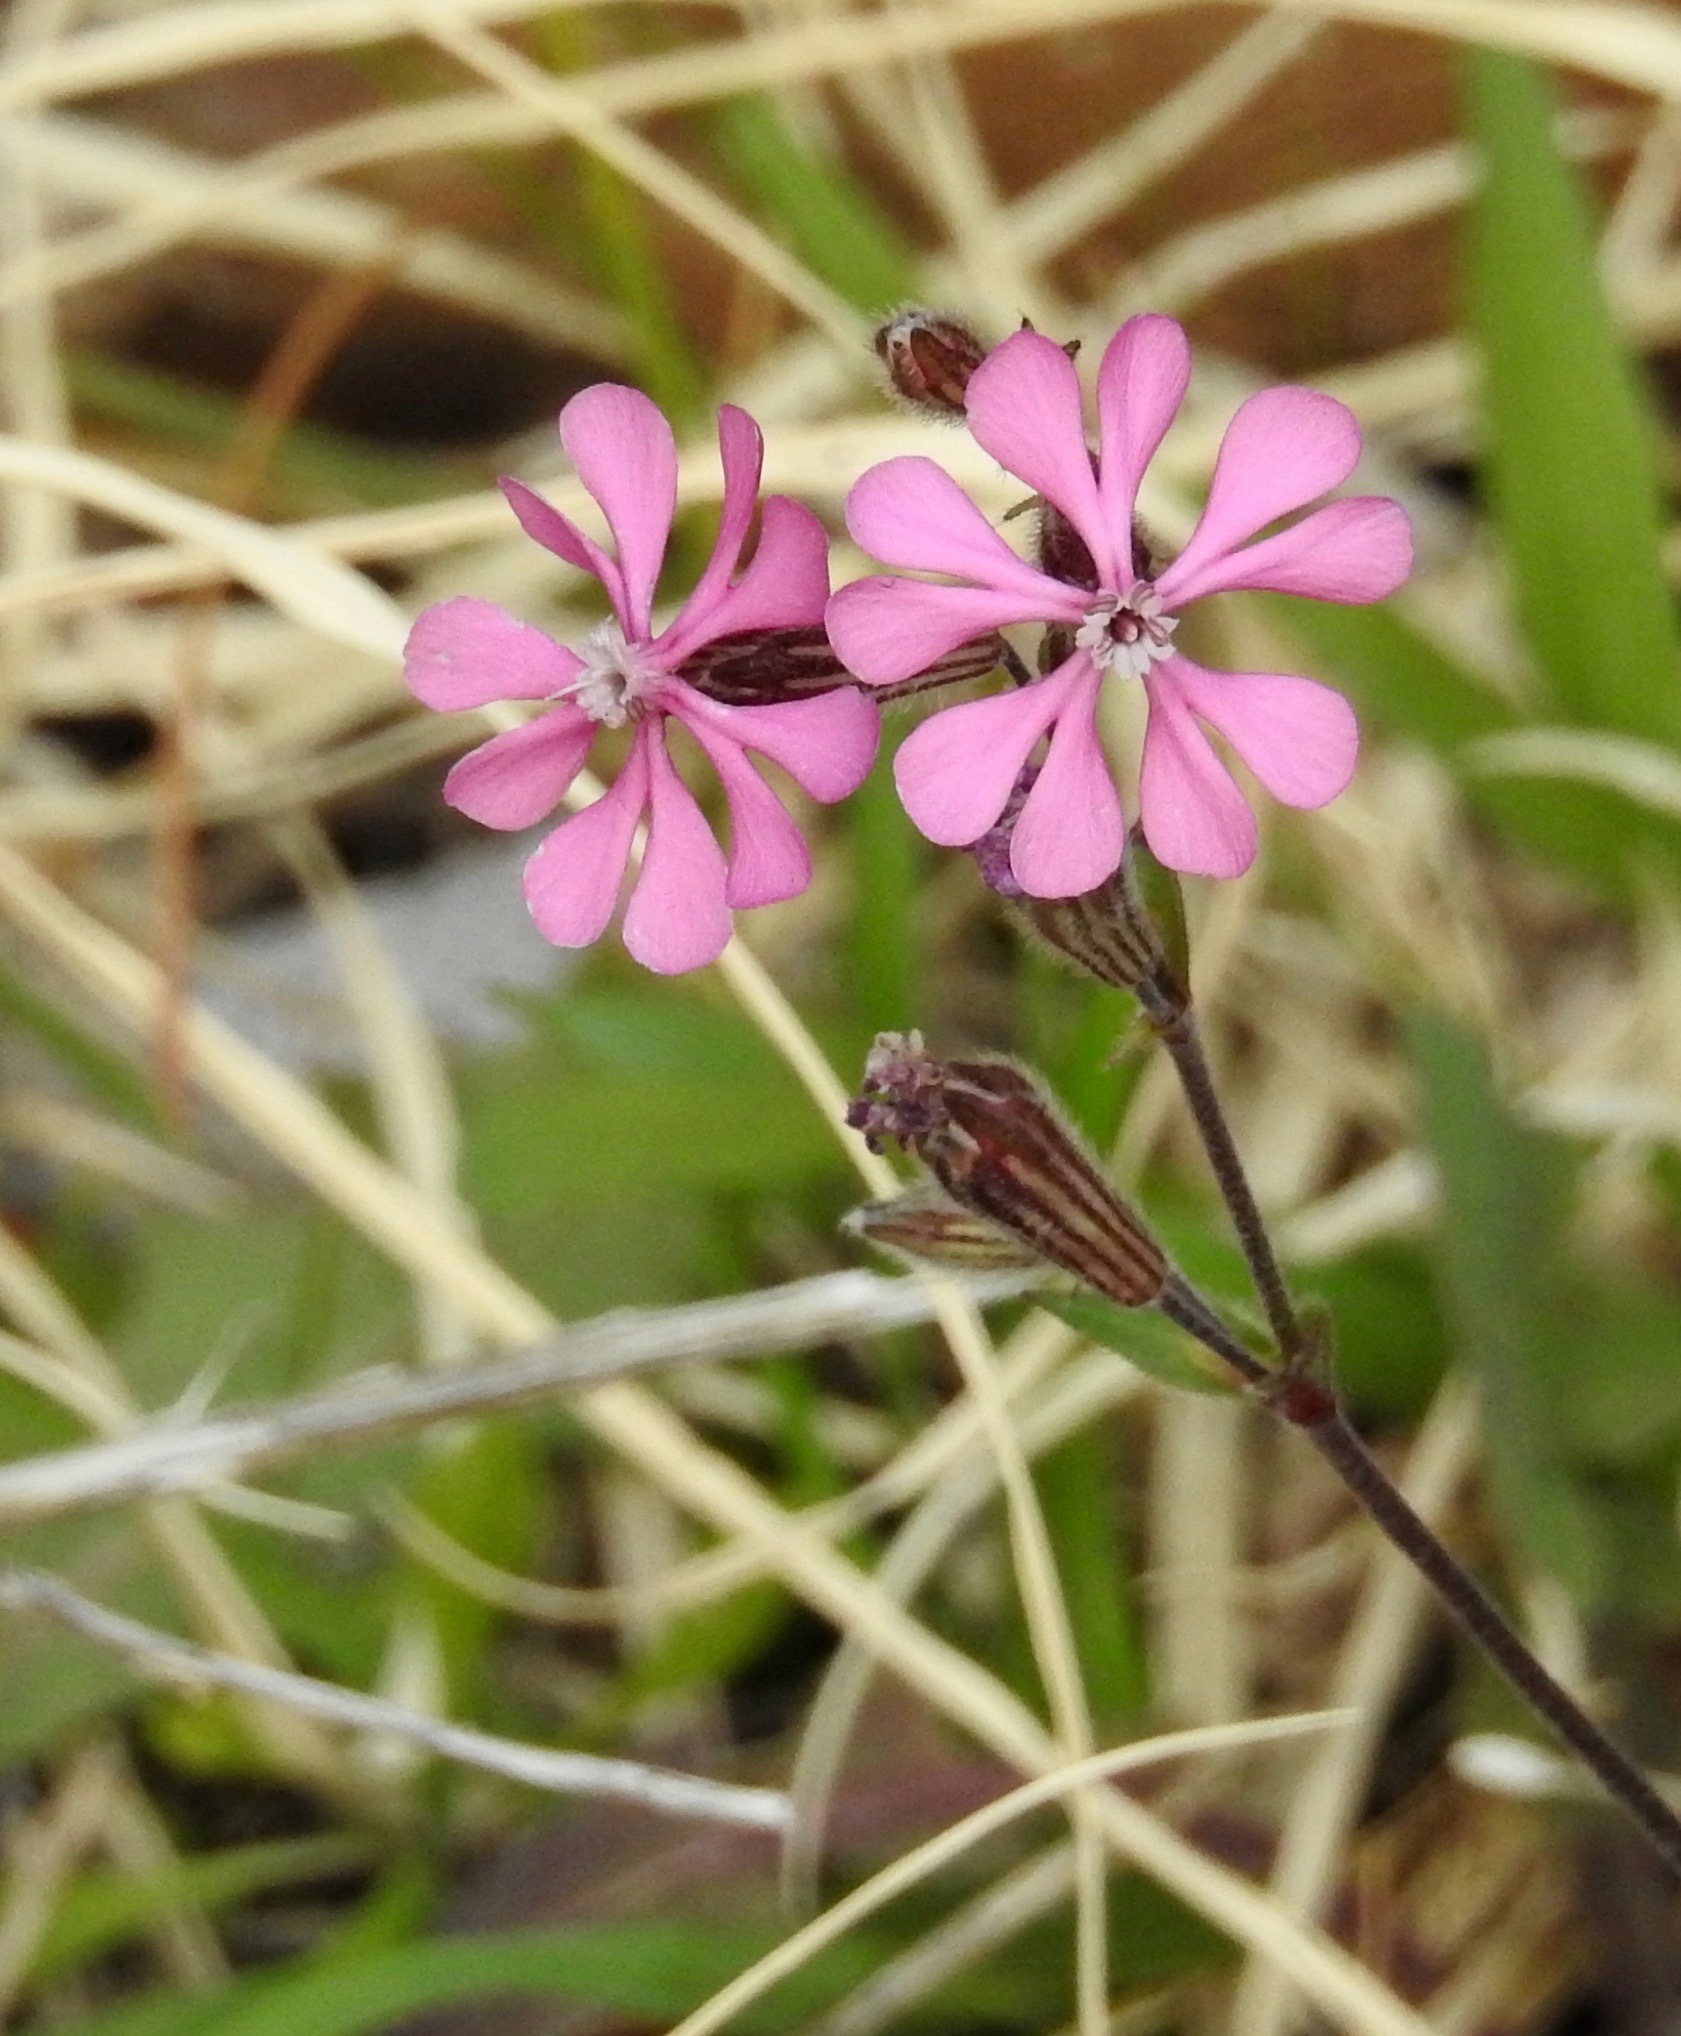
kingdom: Plantae
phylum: Tracheophyta
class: Magnoliopsida
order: Caryophyllales
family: Caryophyllaceae
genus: Silene
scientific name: Silene colorata
